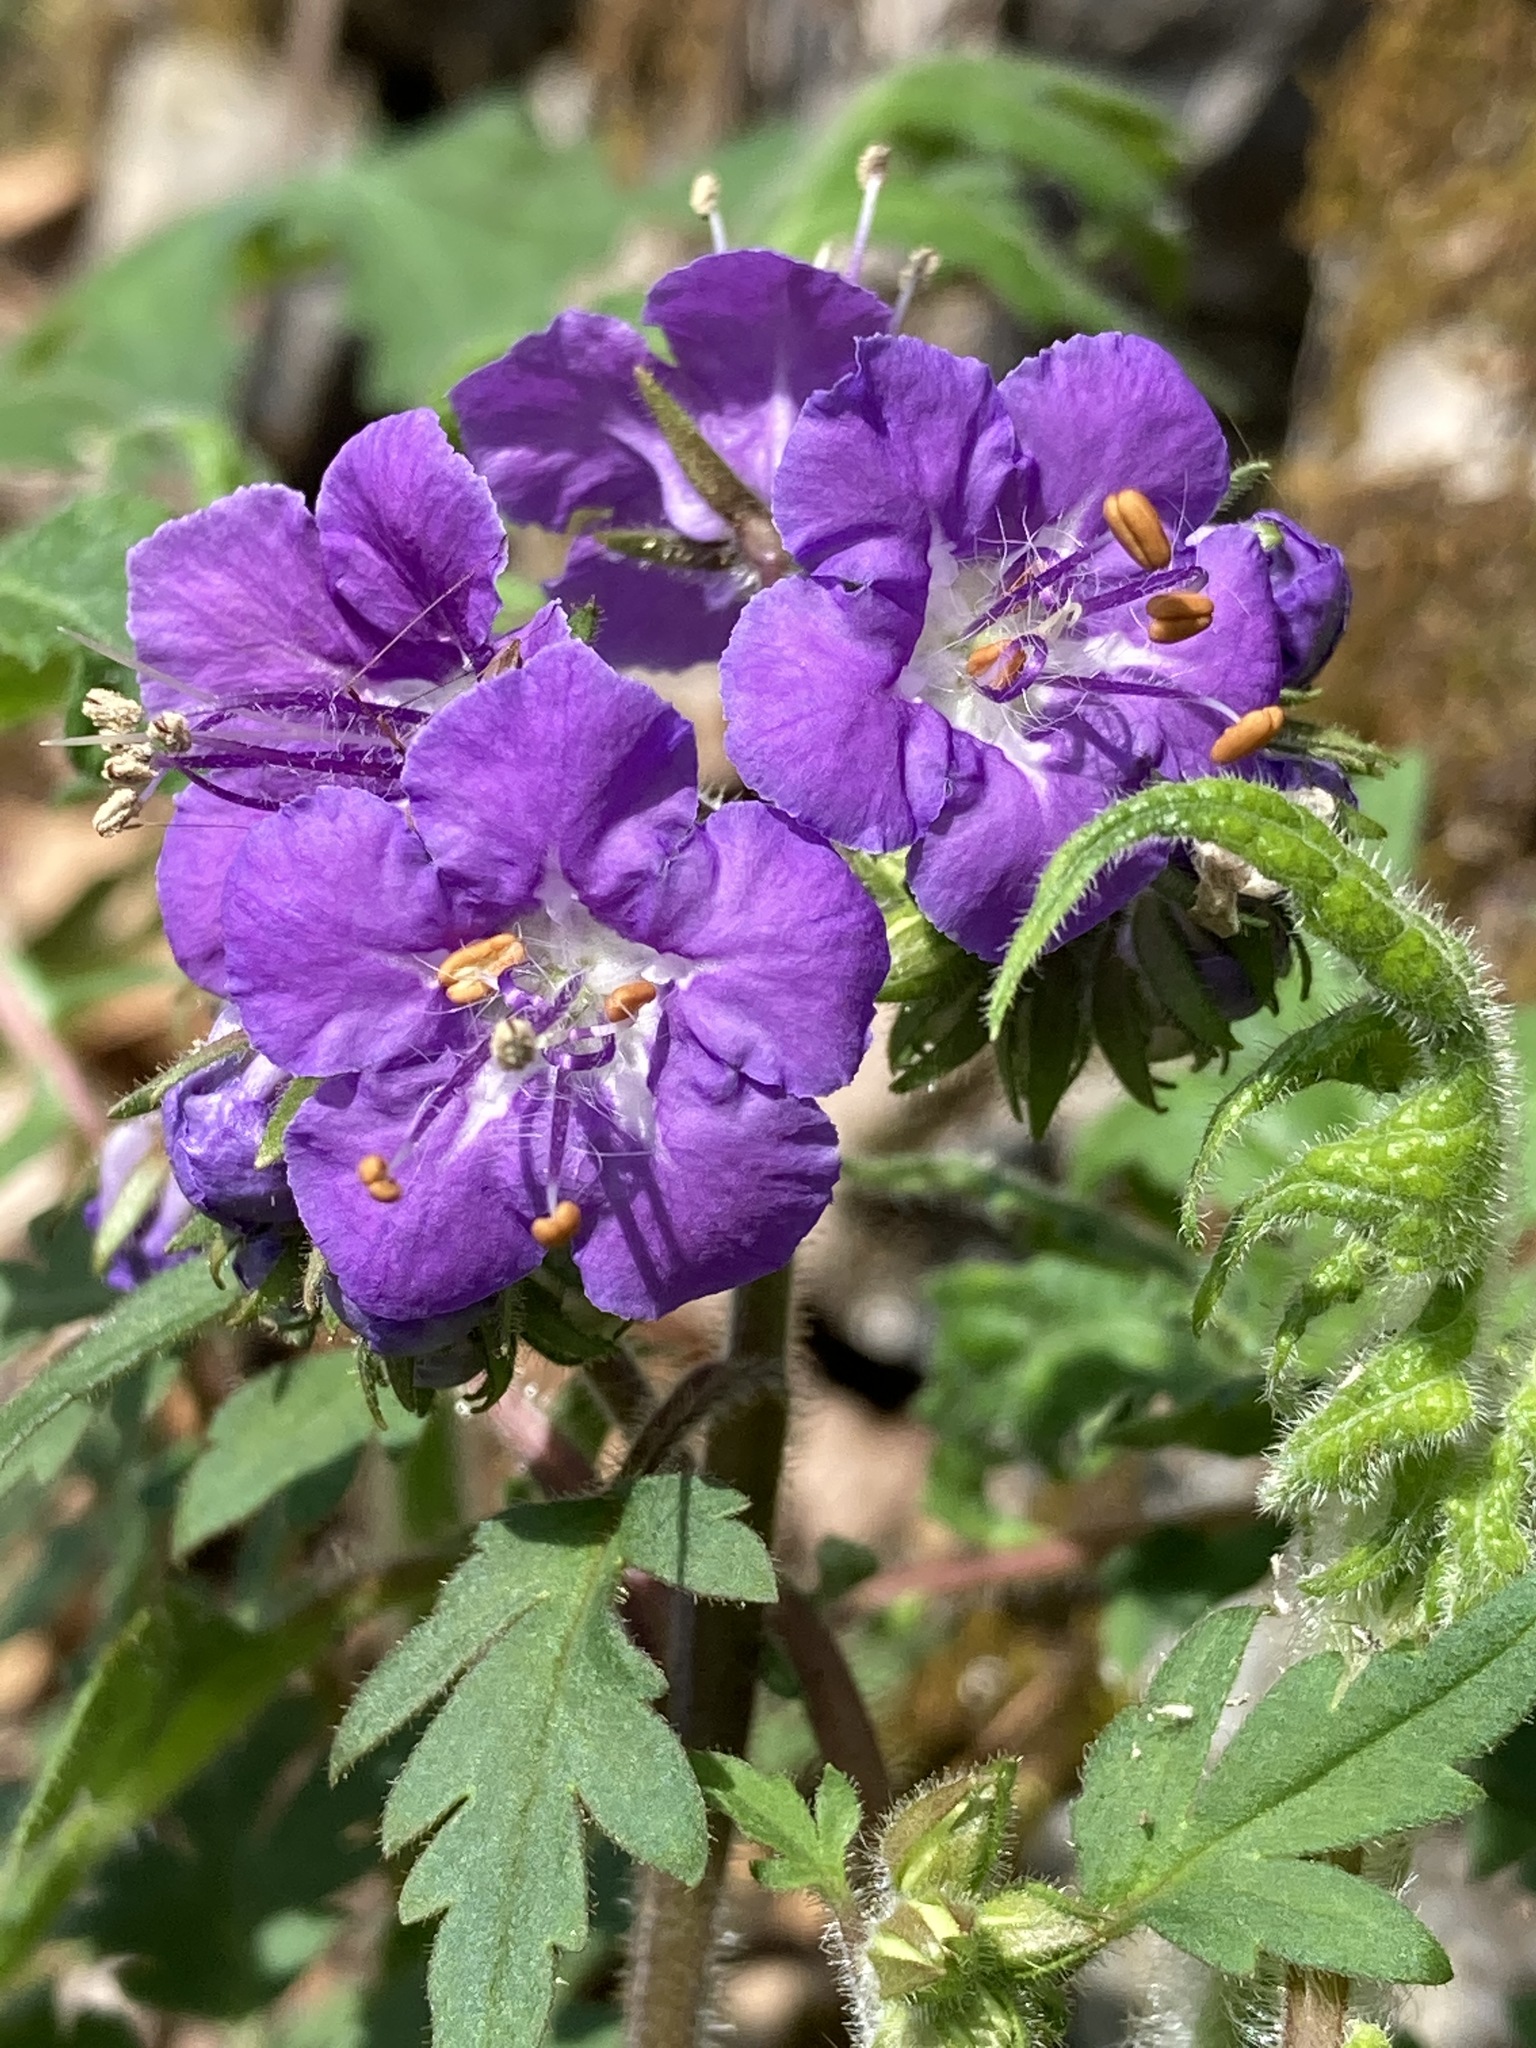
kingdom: Plantae
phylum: Tracheophyta
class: Magnoliopsida
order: Boraginales
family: Hydrophyllaceae
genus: Phacelia
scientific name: Phacelia bipinnatifida
